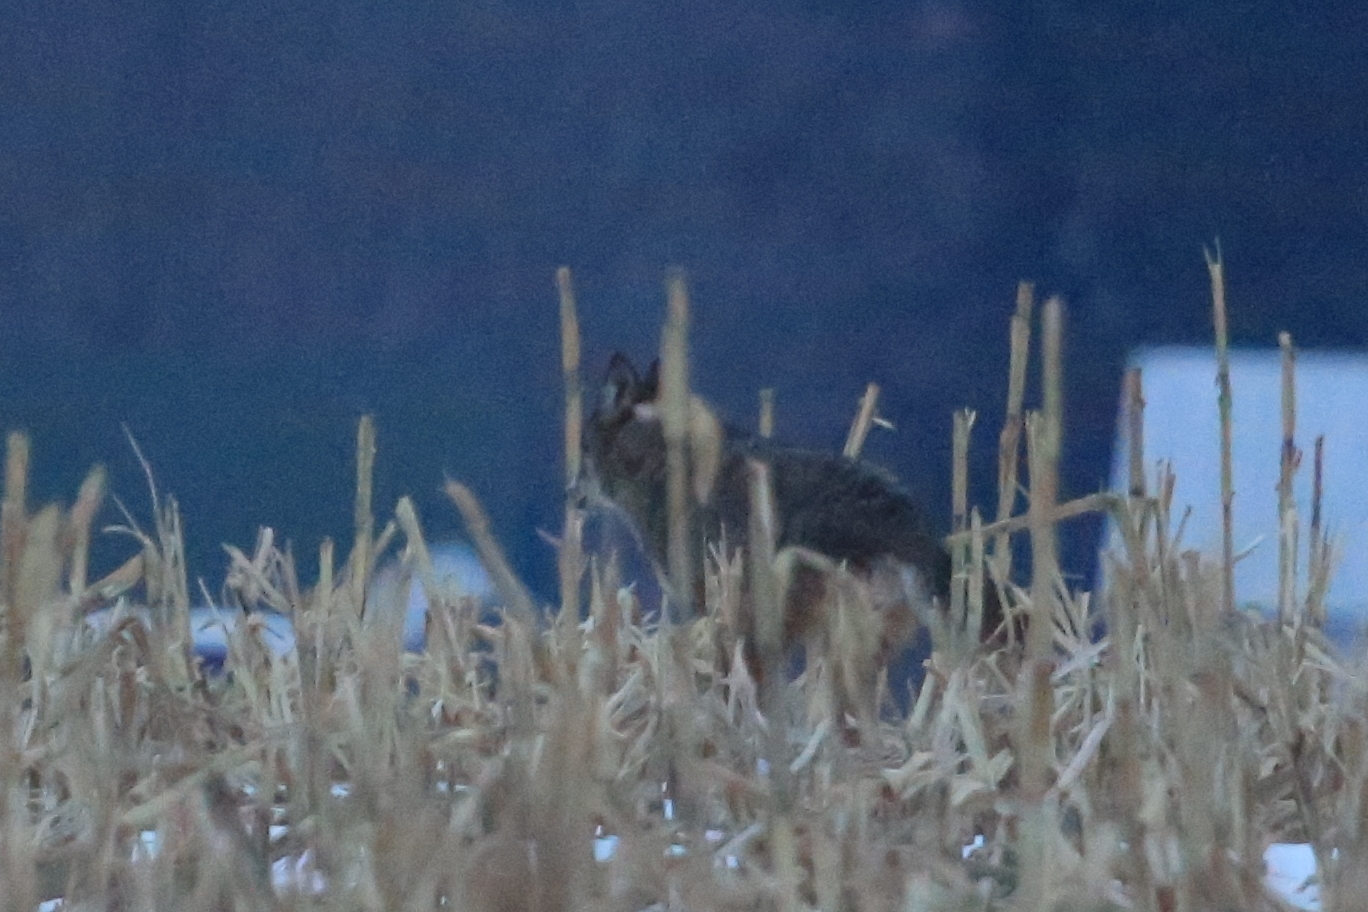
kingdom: Animalia
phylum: Chordata
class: Mammalia
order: Carnivora
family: Canidae
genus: Canis
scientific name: Canis latrans
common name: Coyote
